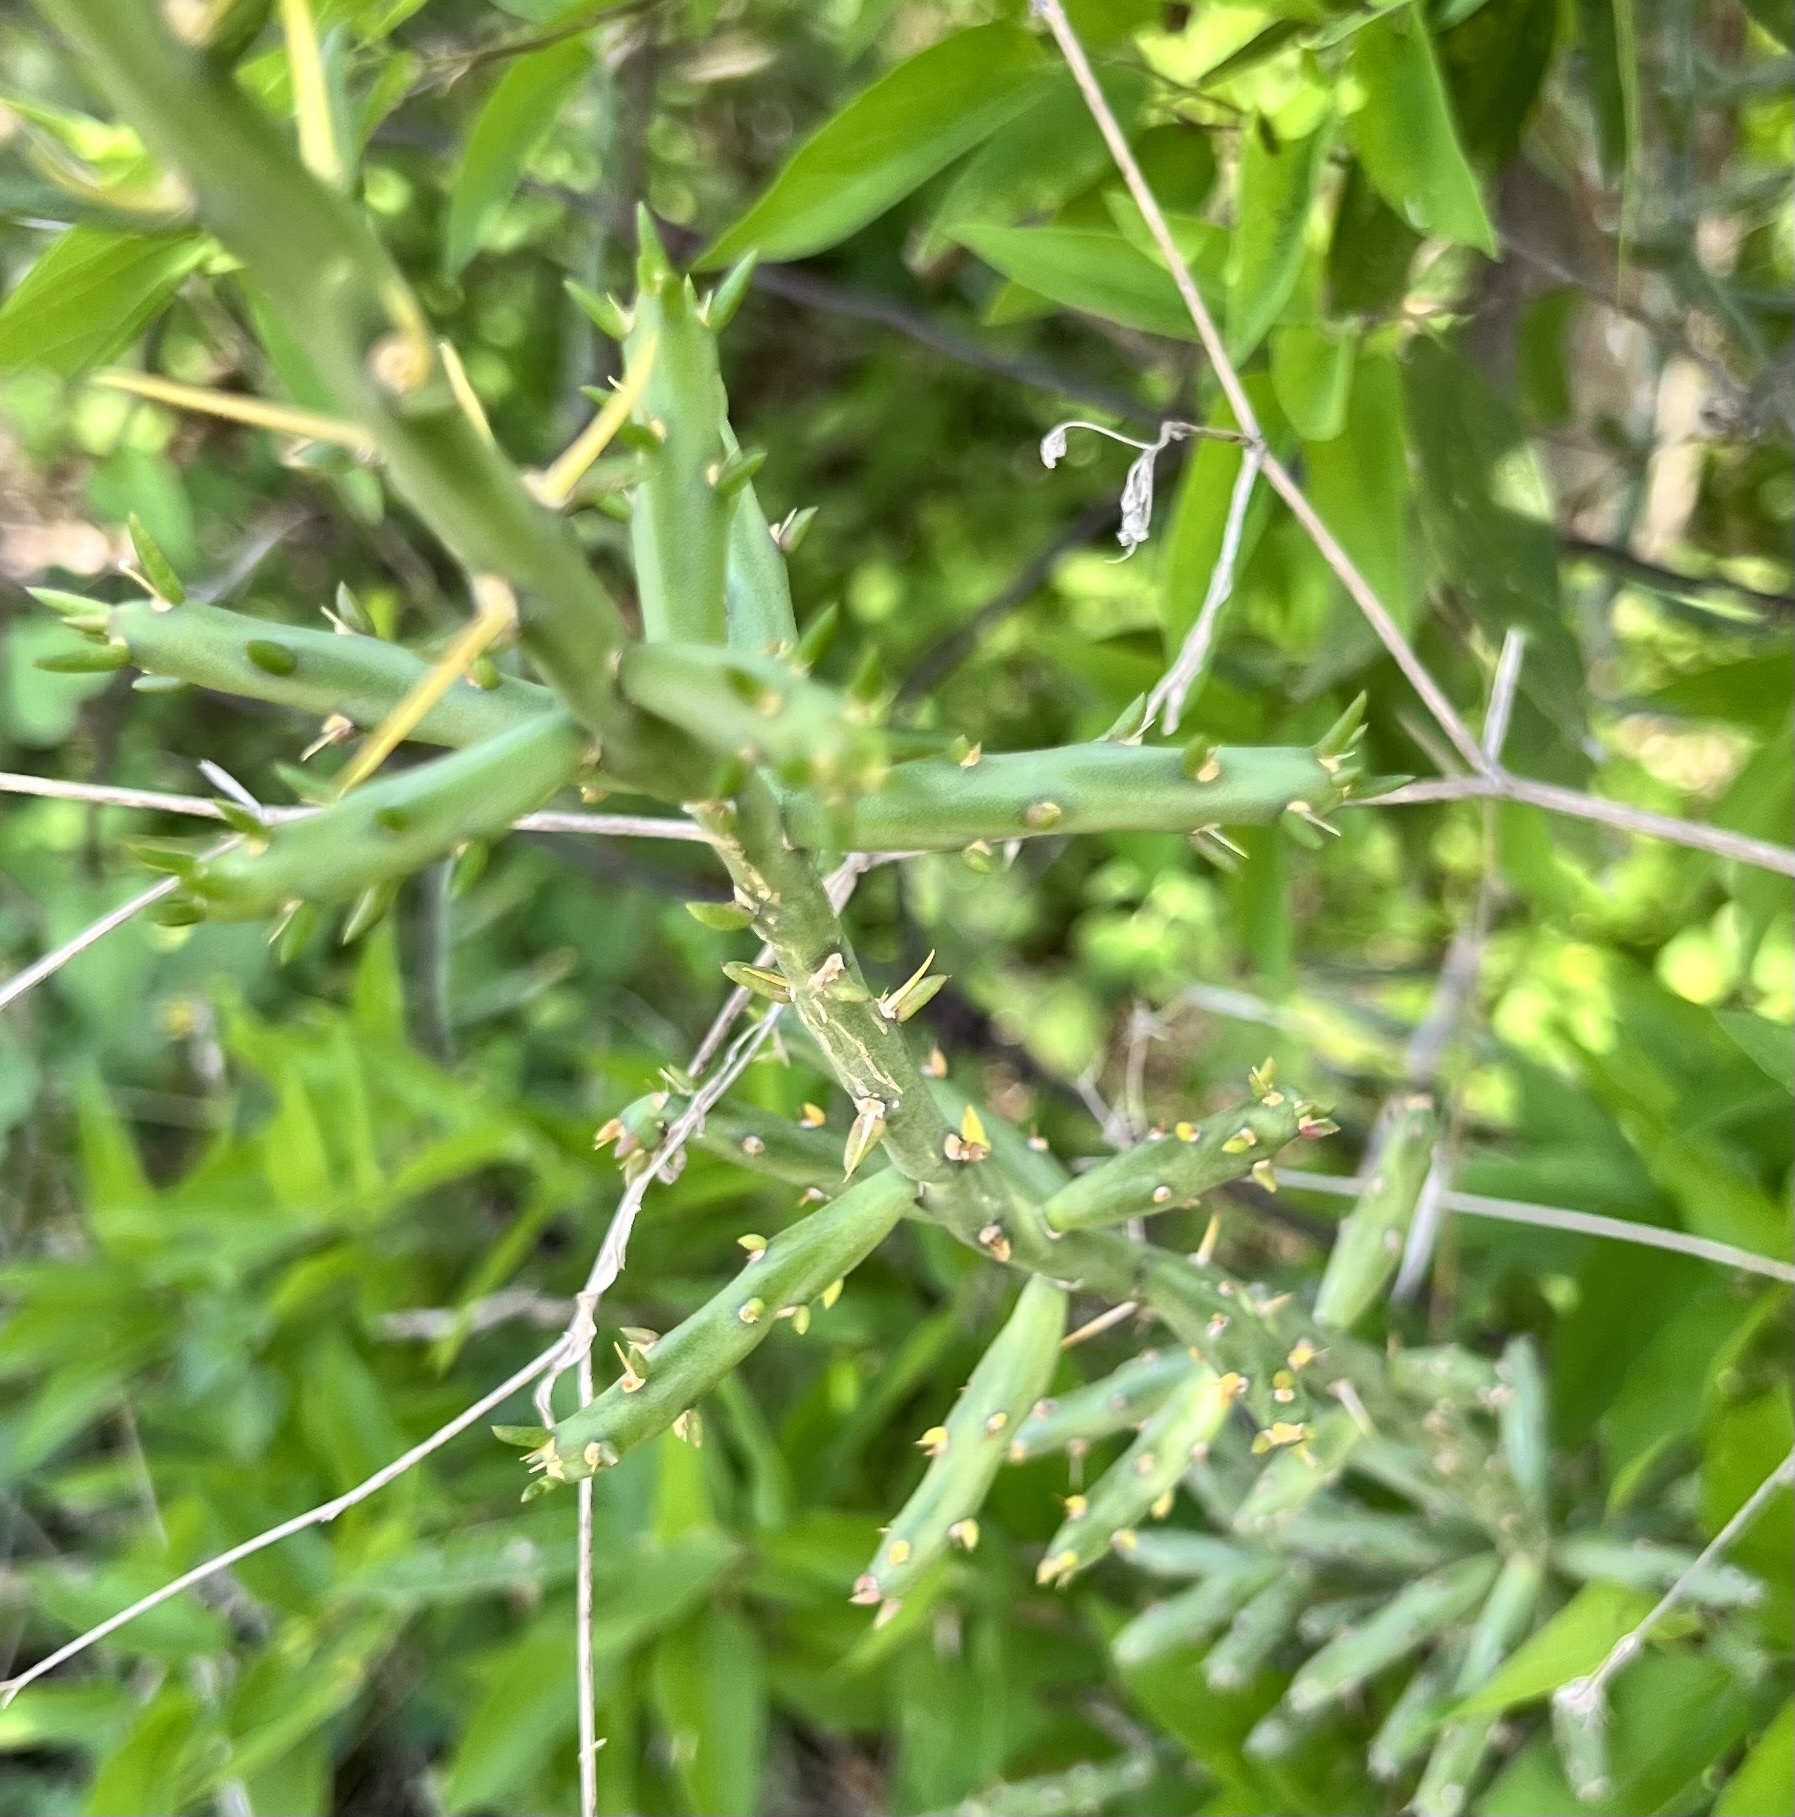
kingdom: Plantae
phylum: Tracheophyta
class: Magnoliopsida
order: Caryophyllales
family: Cactaceae
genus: Cylindropuntia
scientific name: Cylindropuntia leptocaulis
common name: Christmas cactus
